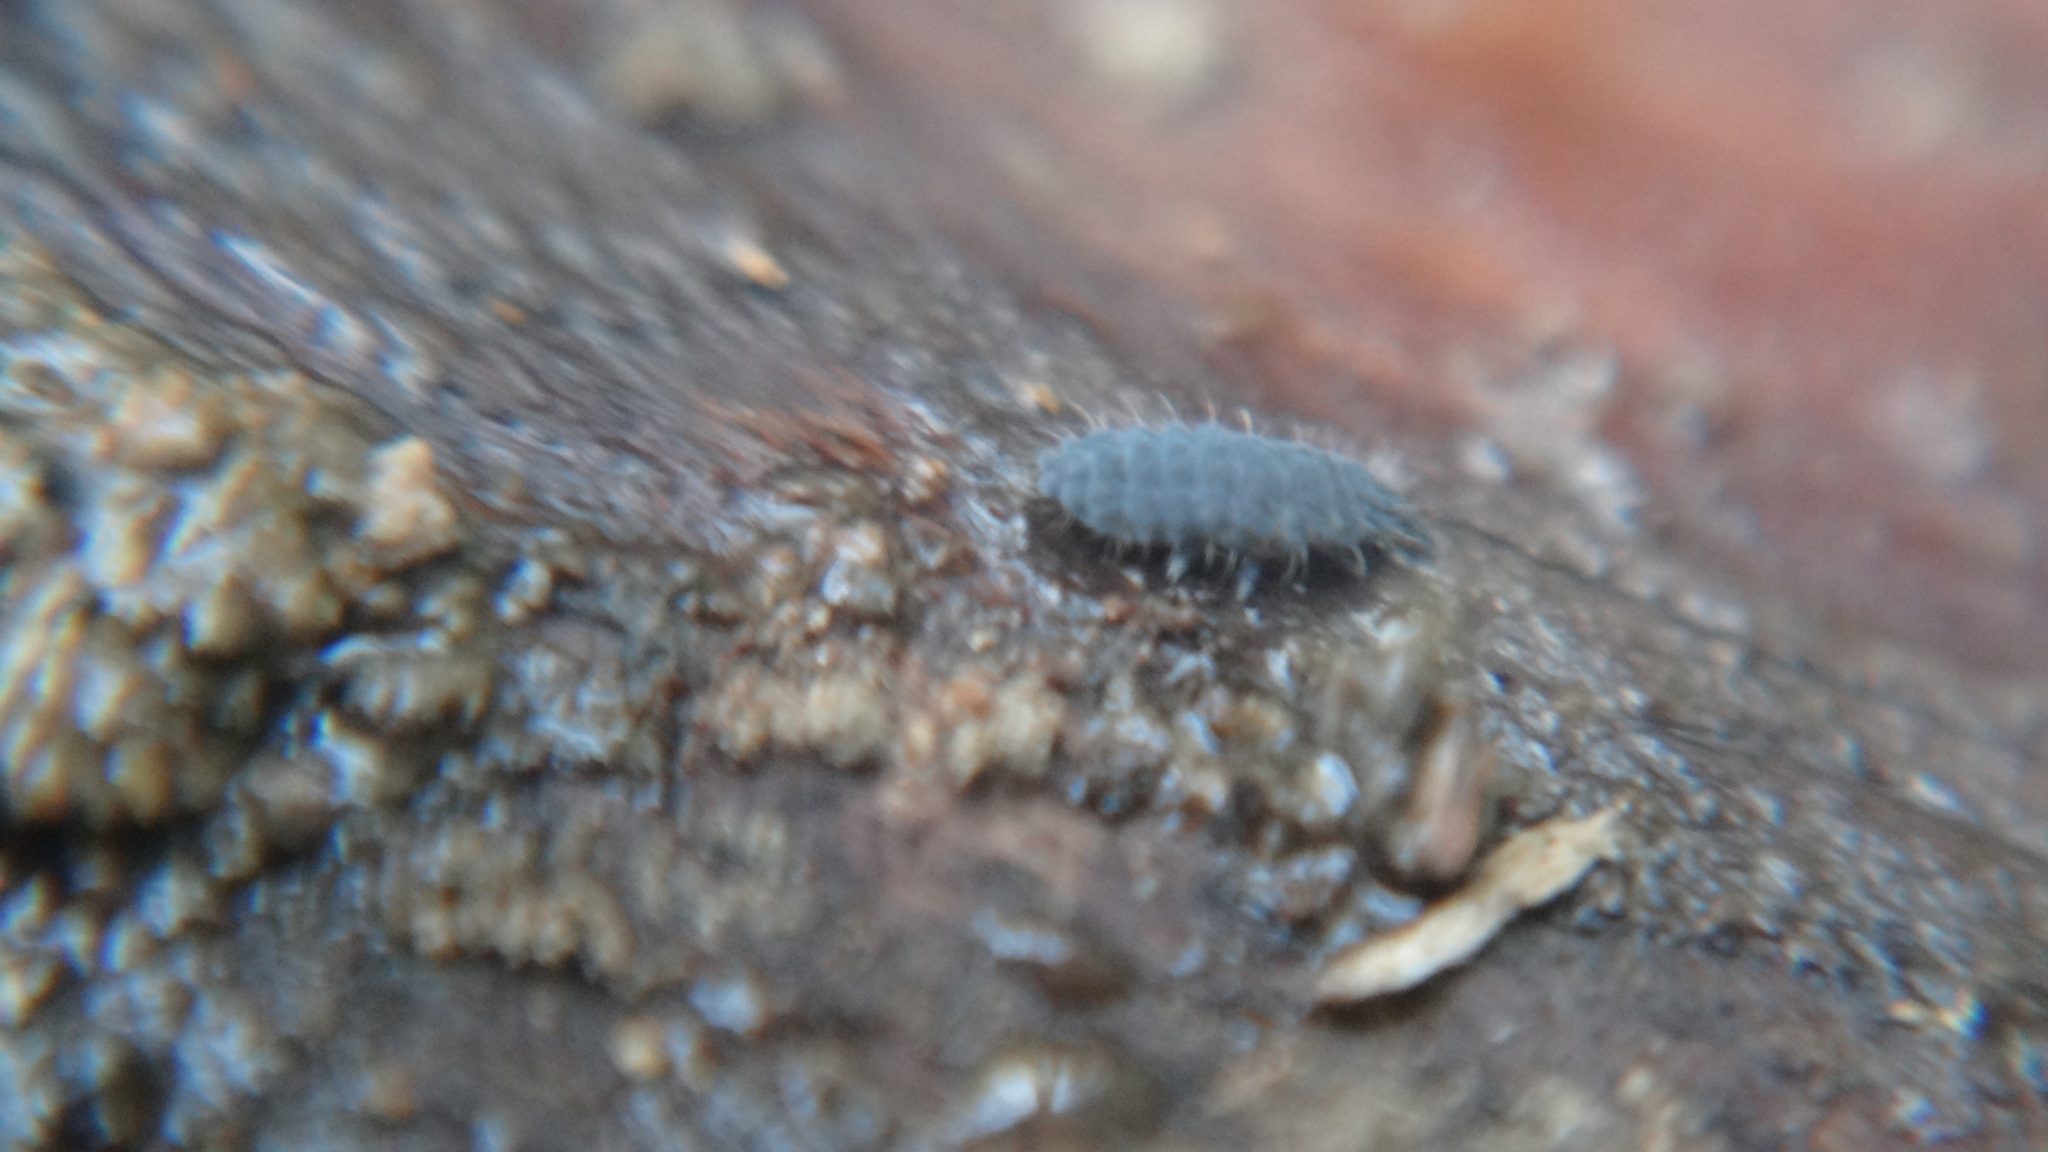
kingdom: Animalia
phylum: Arthropoda
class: Collembola
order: Poduromorpha
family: Neanuridae
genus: Neanura
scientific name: Neanura muscorum
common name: Springtail
